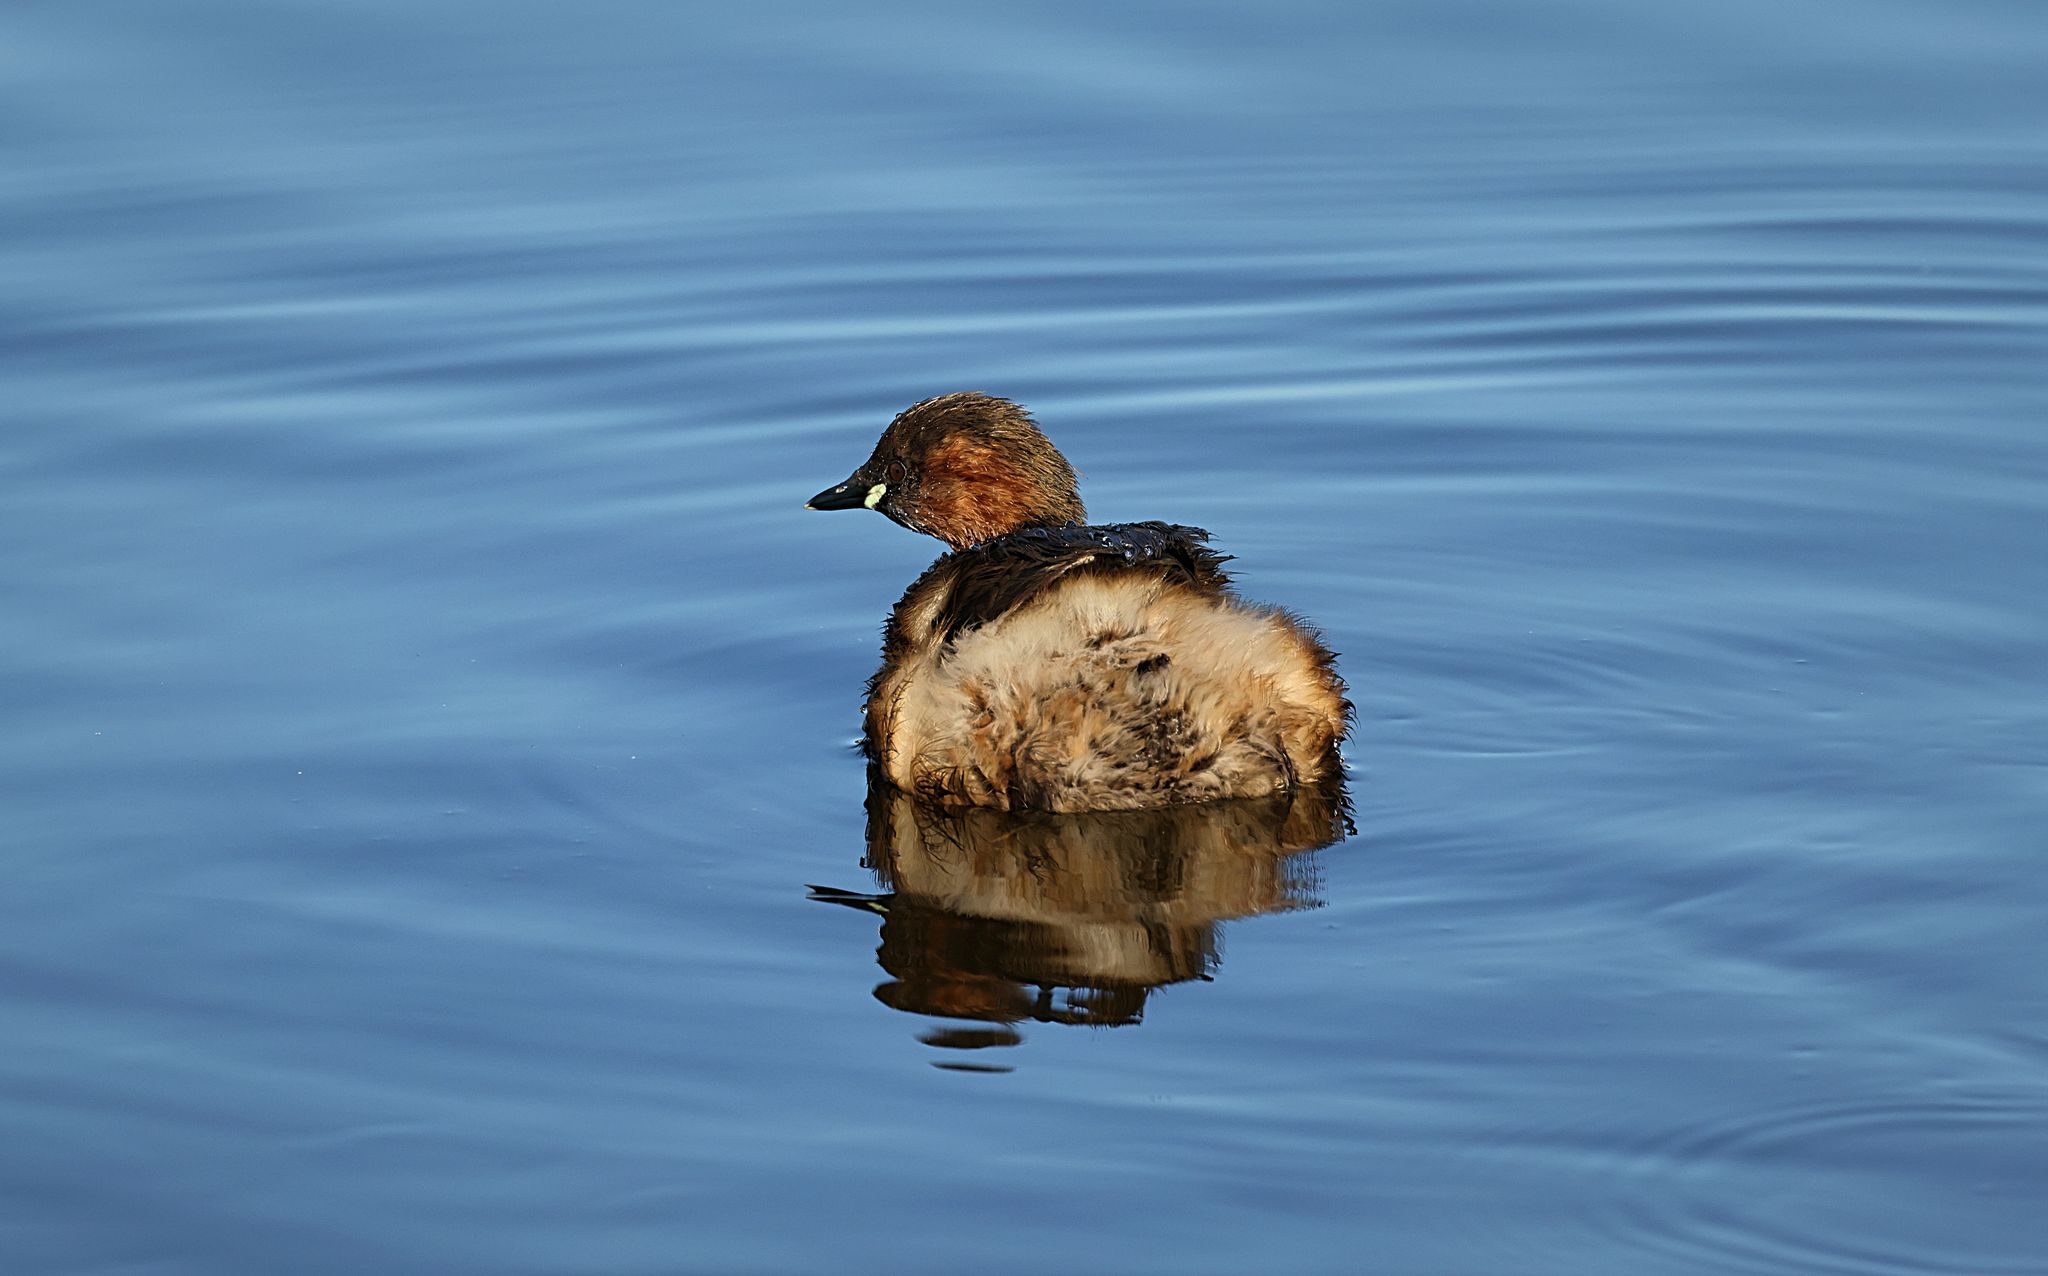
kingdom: Animalia
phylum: Chordata
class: Aves
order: Podicipediformes
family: Podicipedidae
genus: Tachybaptus
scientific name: Tachybaptus ruficollis
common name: Little grebe
